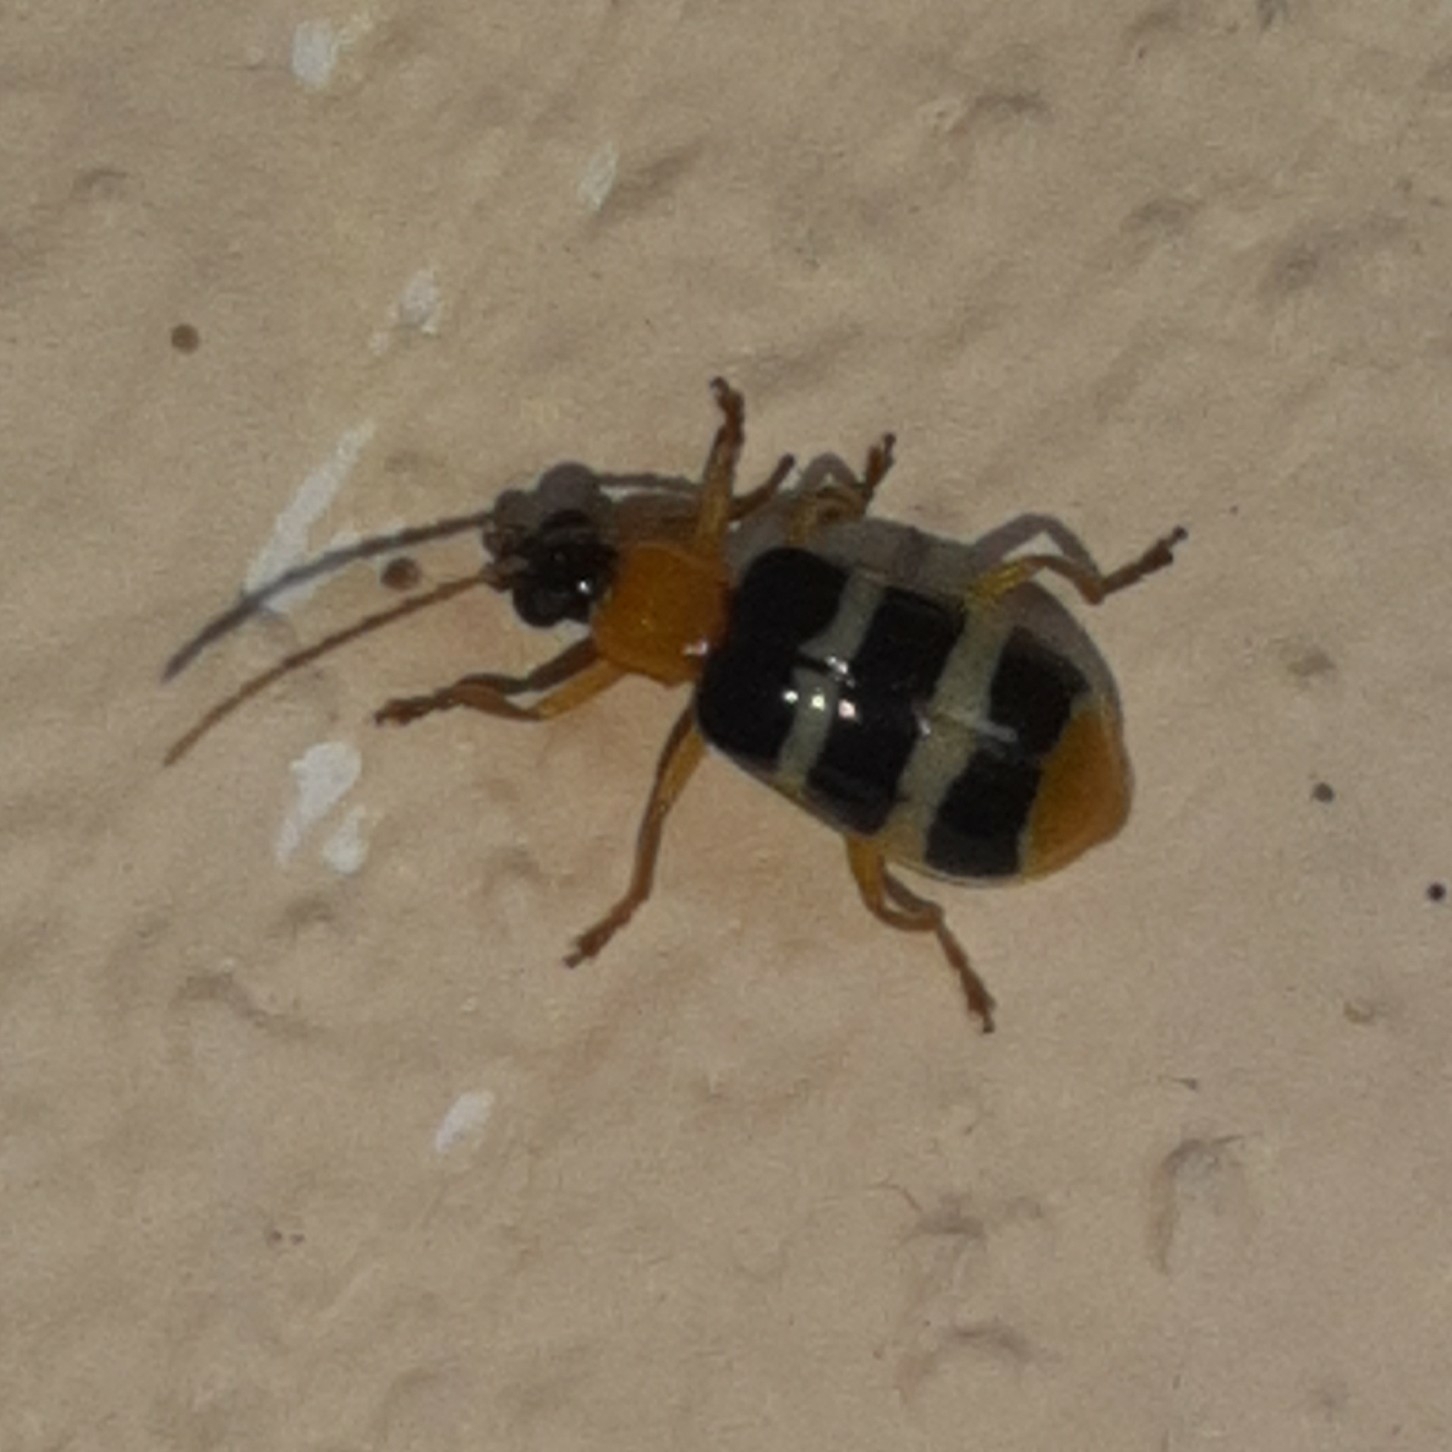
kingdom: Animalia
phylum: Arthropoda
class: Insecta
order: Coleoptera
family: Chrysomelidae
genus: Diabrotica
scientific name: Diabrotica
